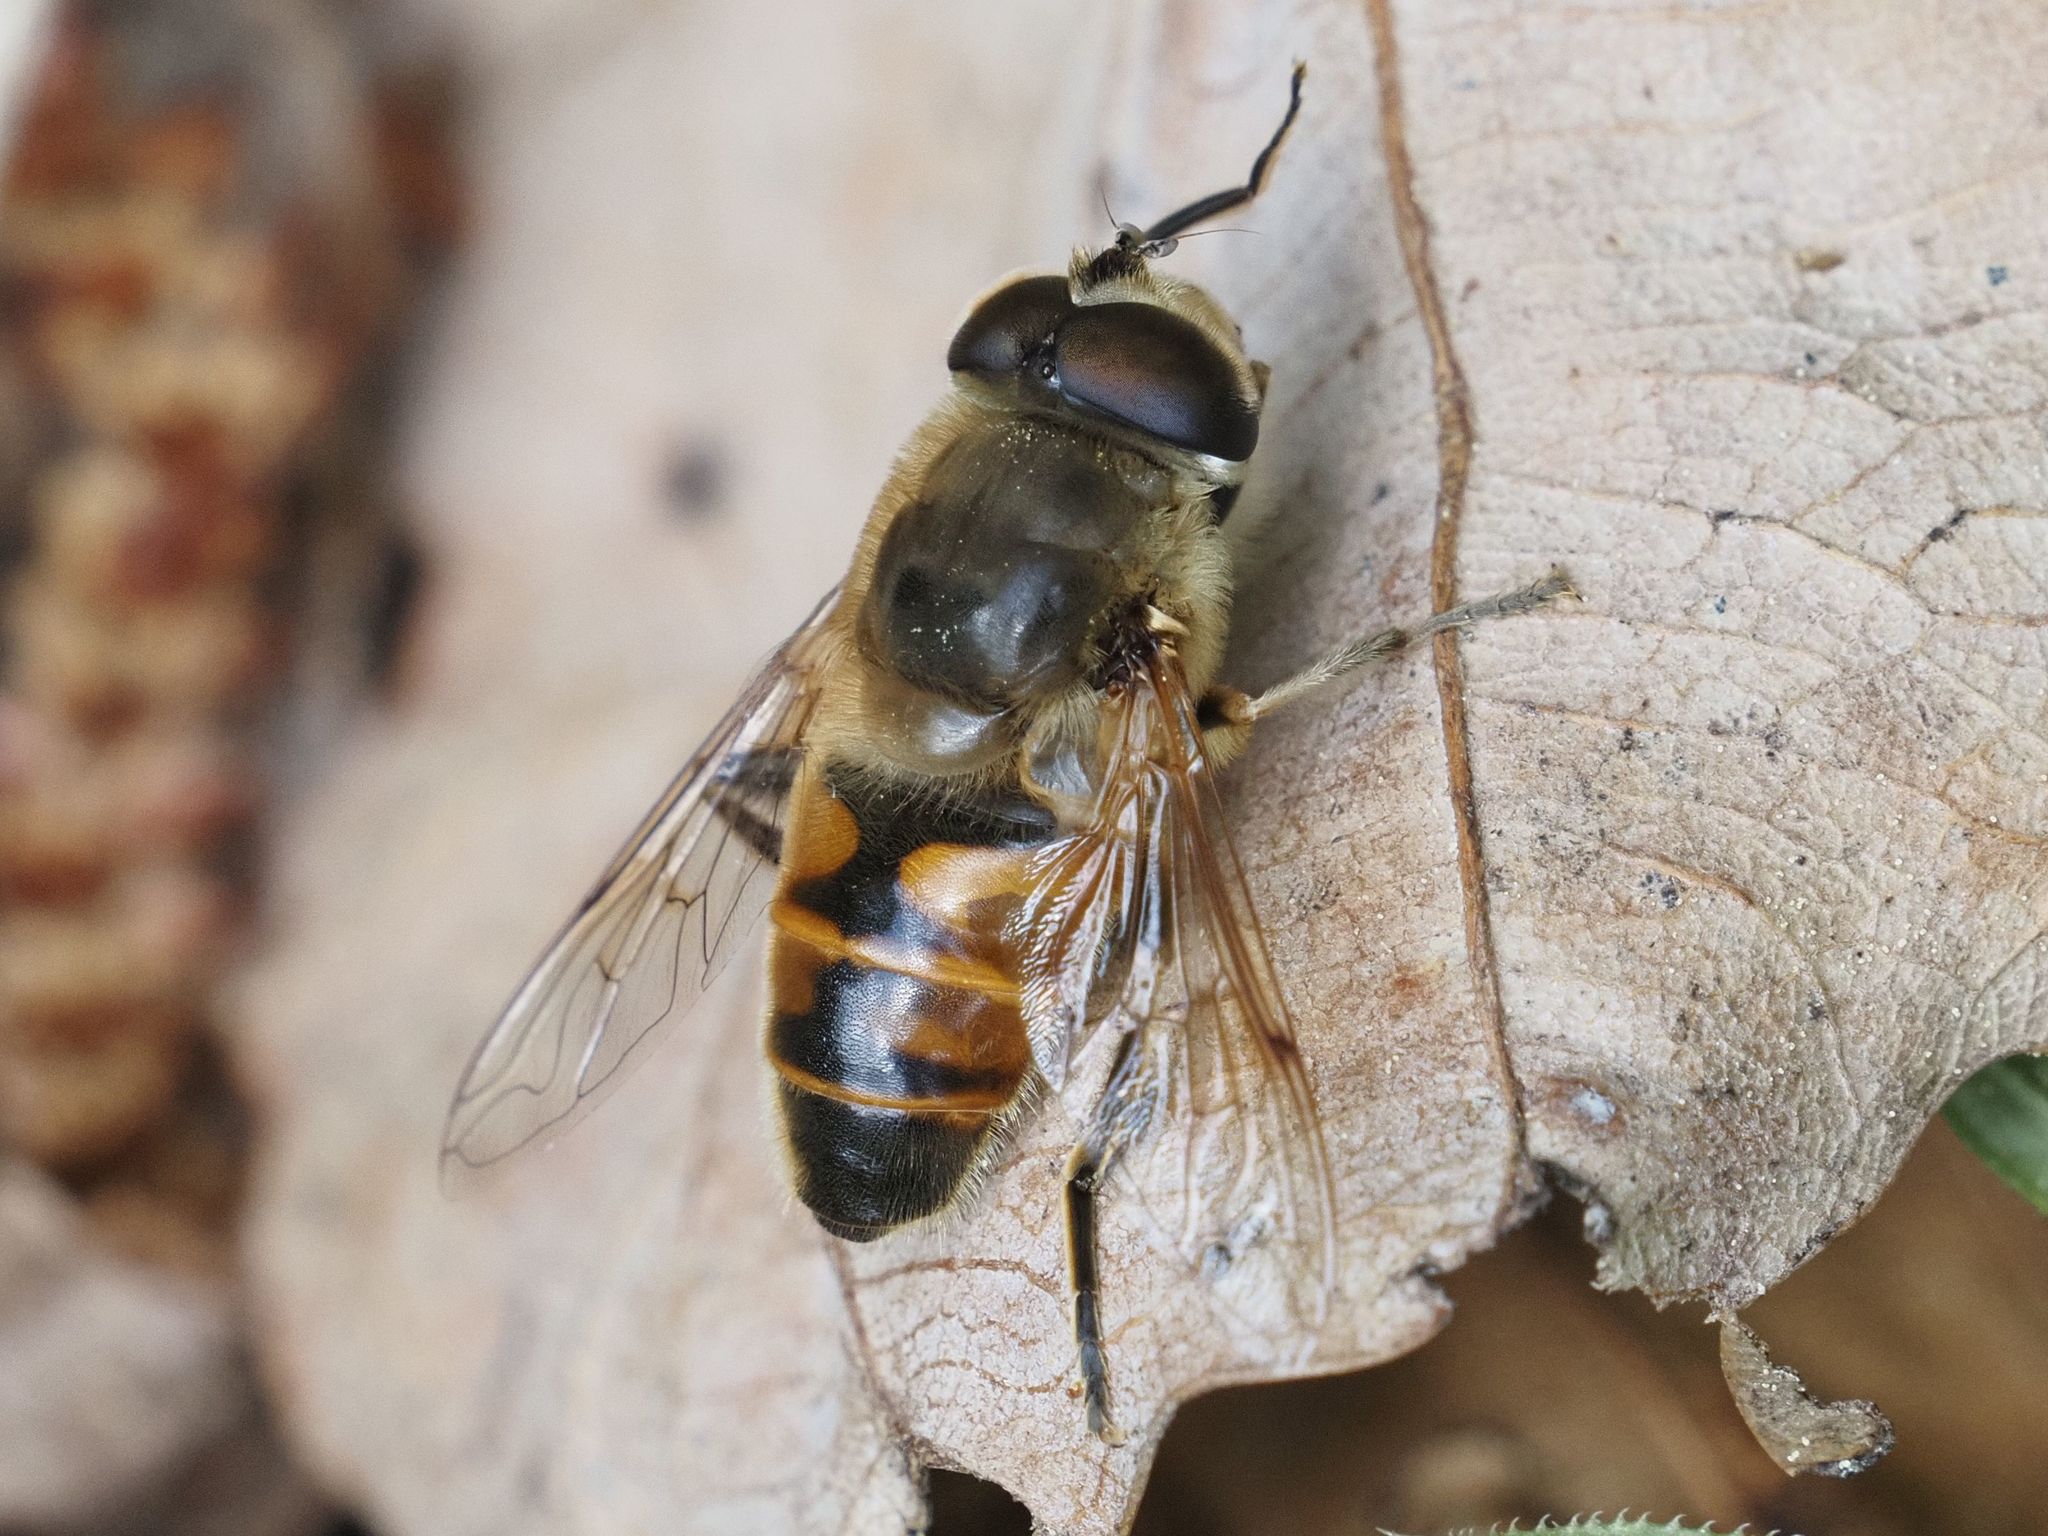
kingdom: Animalia
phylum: Arthropoda
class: Insecta
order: Diptera
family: Syrphidae
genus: Eristalis
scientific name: Eristalis tenax
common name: Drone fly
